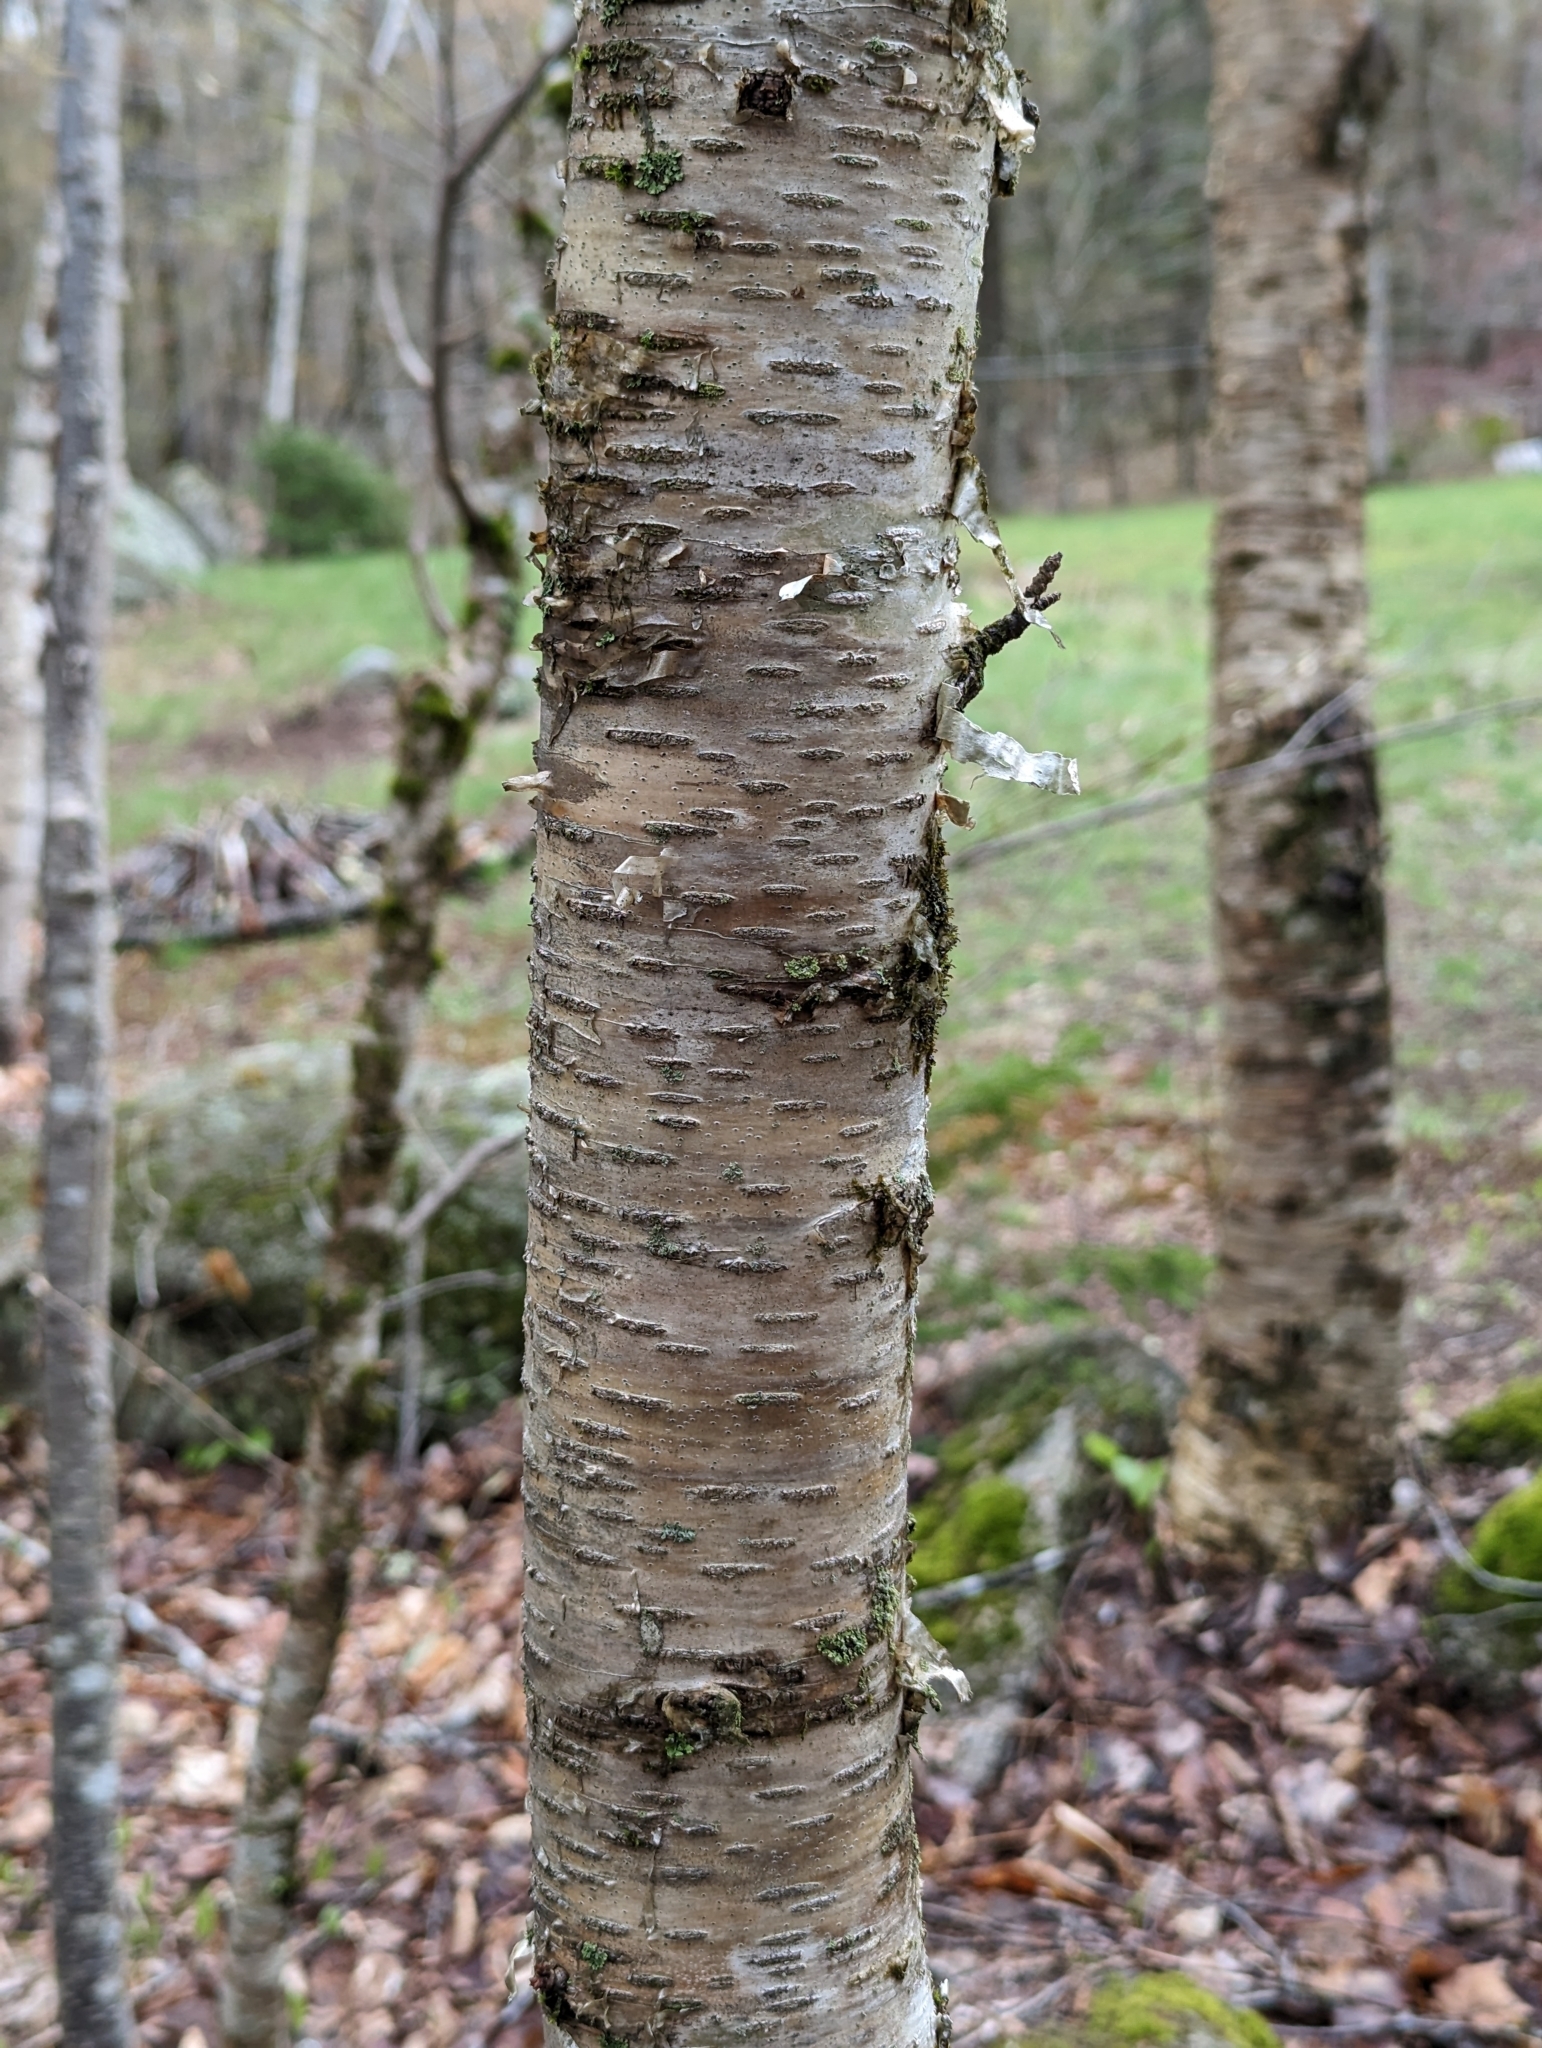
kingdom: Plantae
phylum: Tracheophyta
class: Magnoliopsida
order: Fagales
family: Betulaceae
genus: Betula
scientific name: Betula alleghaniensis
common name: Yellow birch
